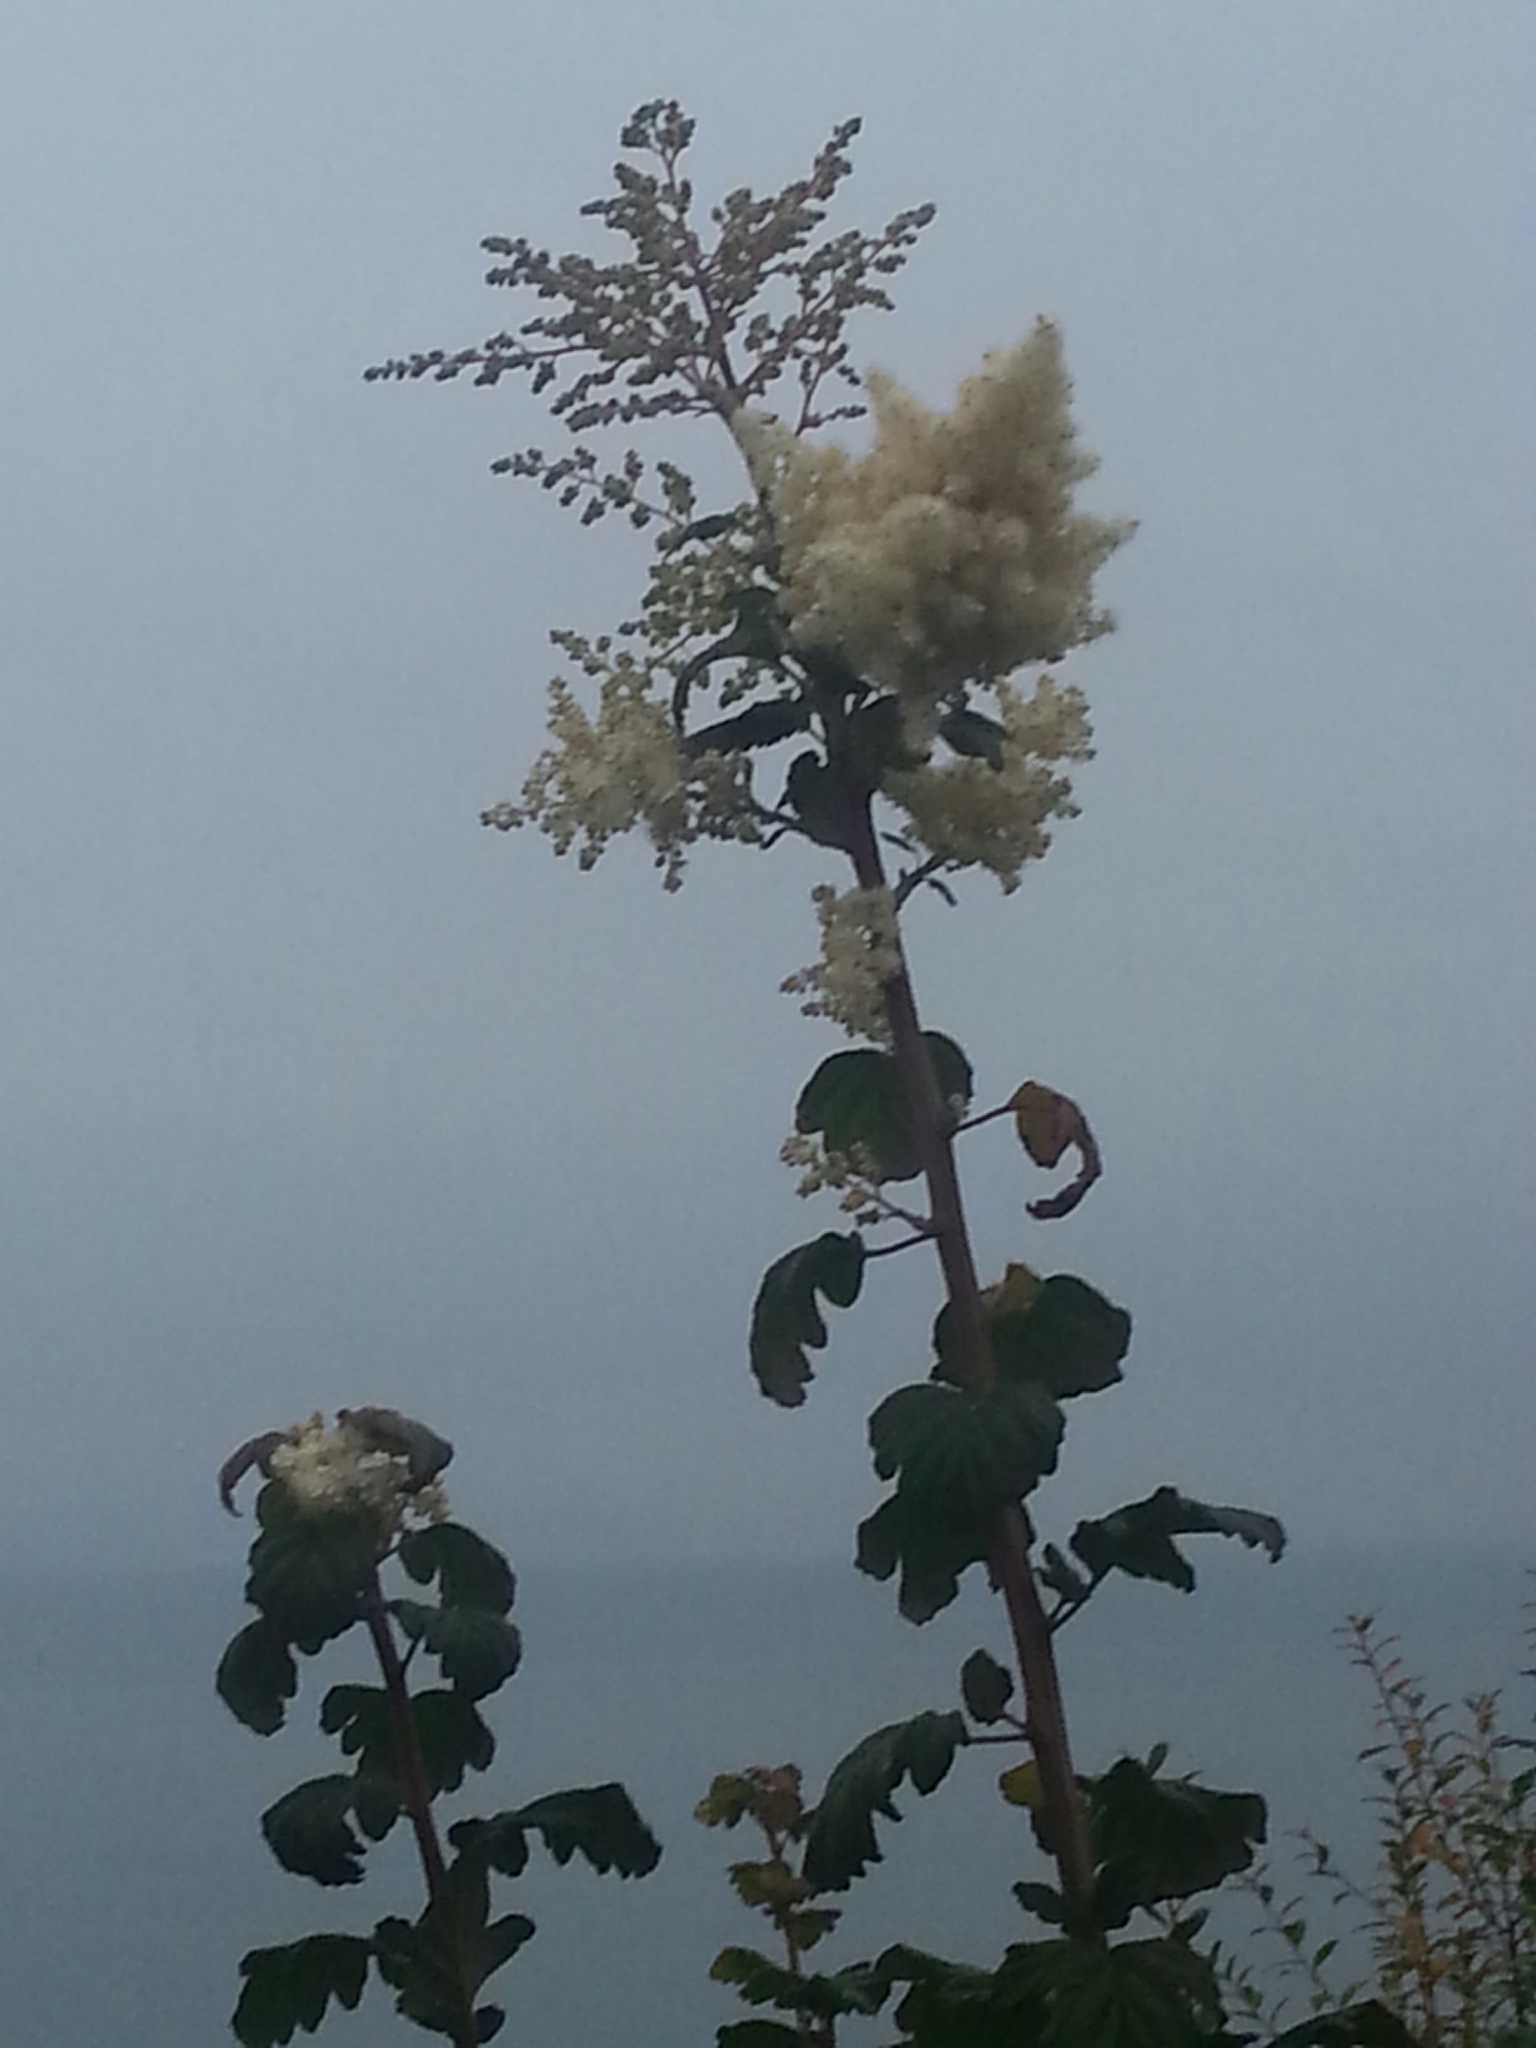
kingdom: Plantae
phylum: Tracheophyta
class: Magnoliopsida
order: Rosales
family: Rosaceae
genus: Holodiscus
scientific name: Holodiscus discolor
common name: Oceanspray
